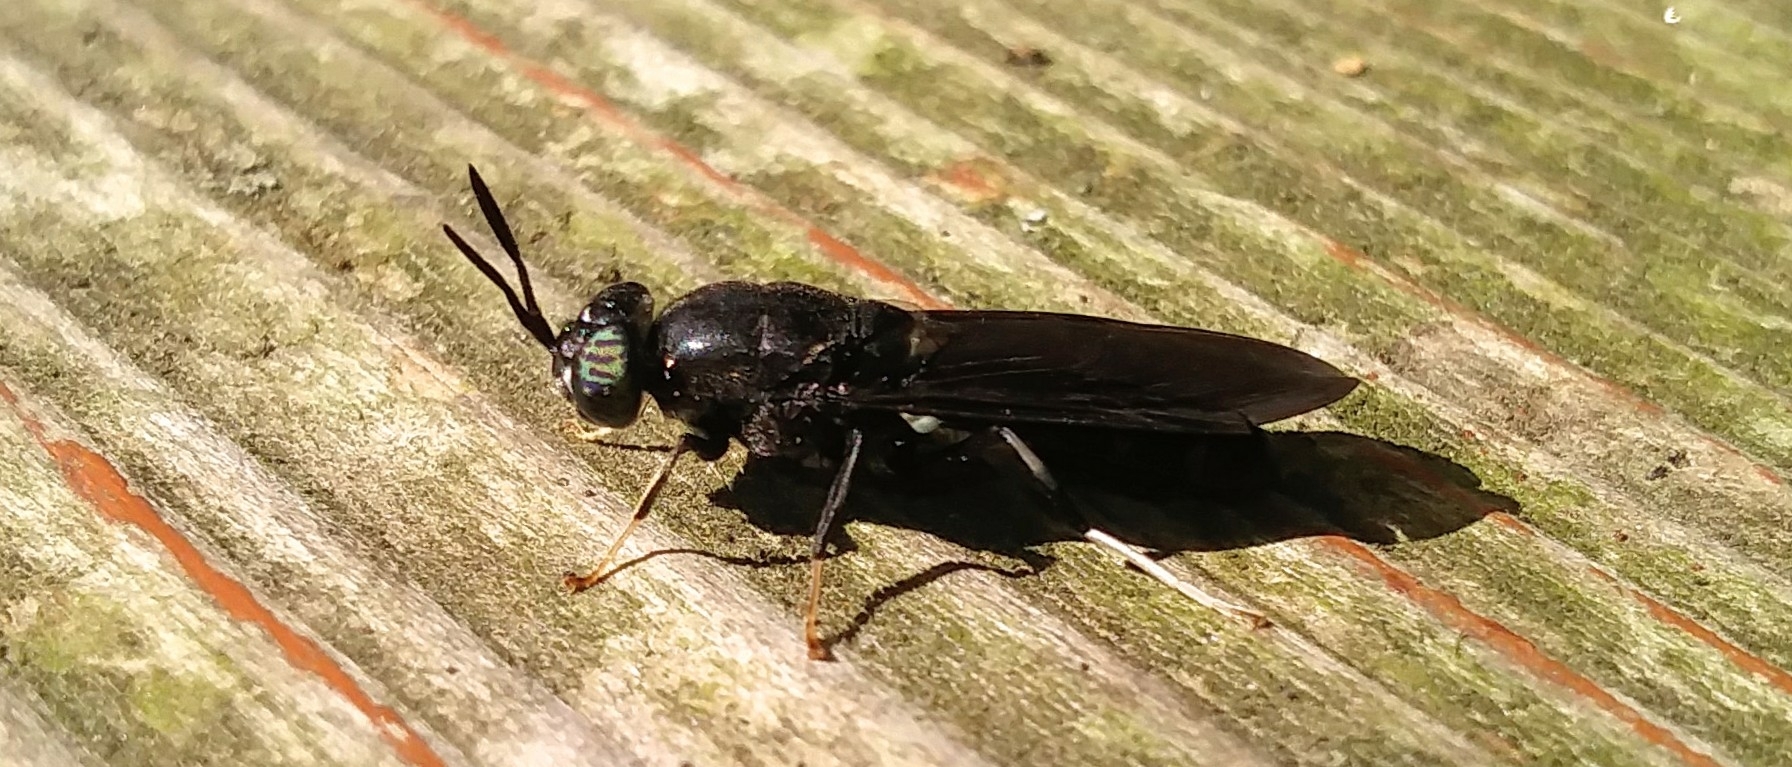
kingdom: Animalia
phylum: Arthropoda
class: Insecta
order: Diptera
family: Stratiomyidae
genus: Hermetia
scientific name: Hermetia illucens
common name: Black soldier fly
